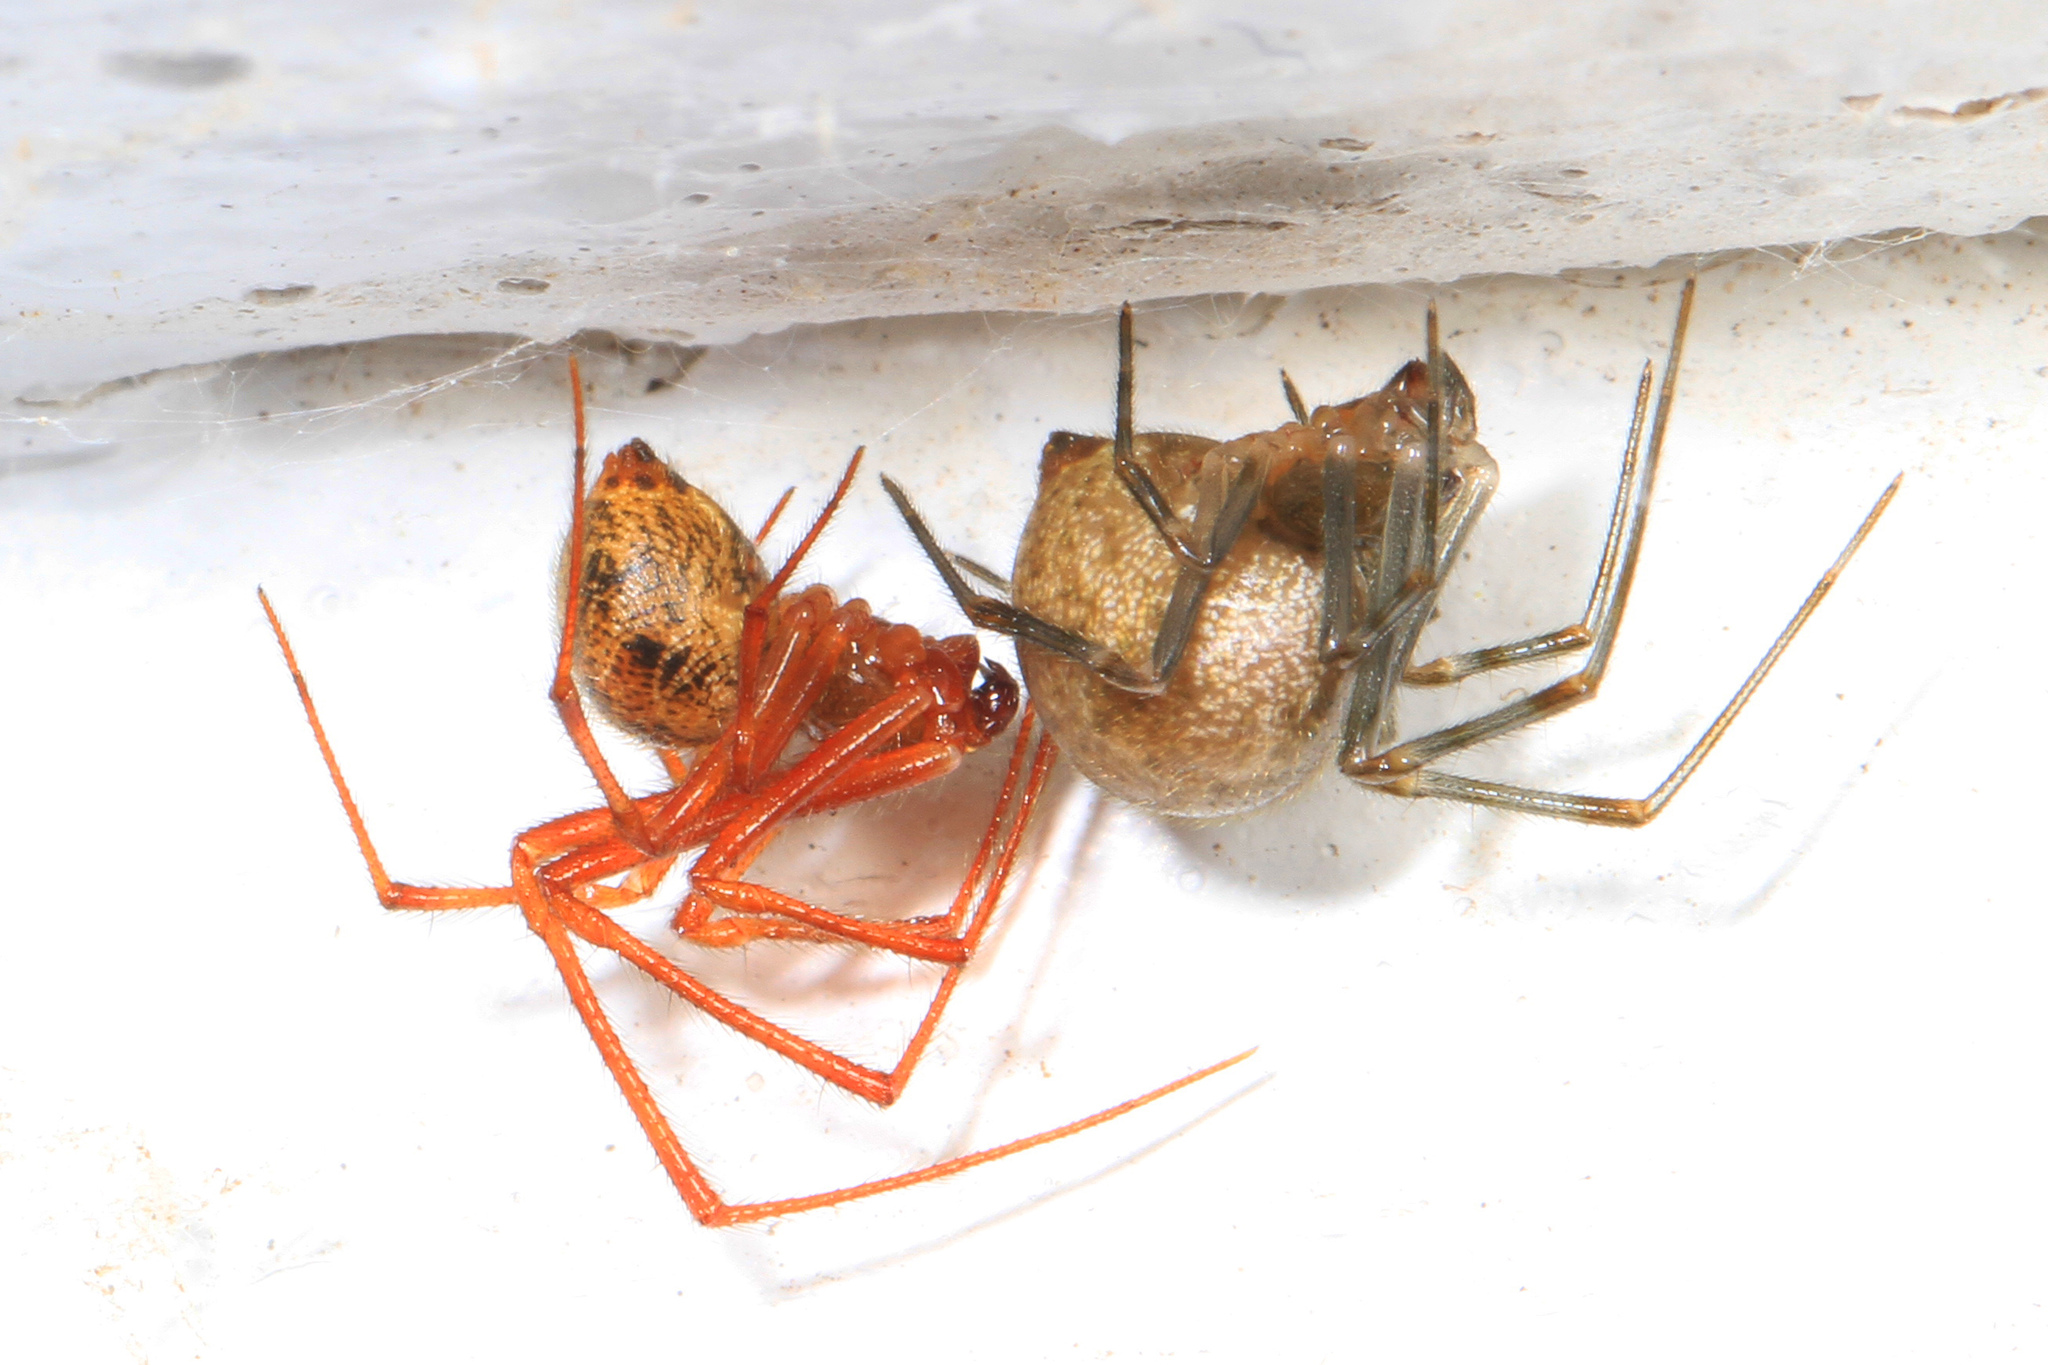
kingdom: Animalia
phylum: Arthropoda
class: Arachnida
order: Araneae
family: Theridiidae
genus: Parasteatoda
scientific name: Parasteatoda tepidariorum
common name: Common house spider
